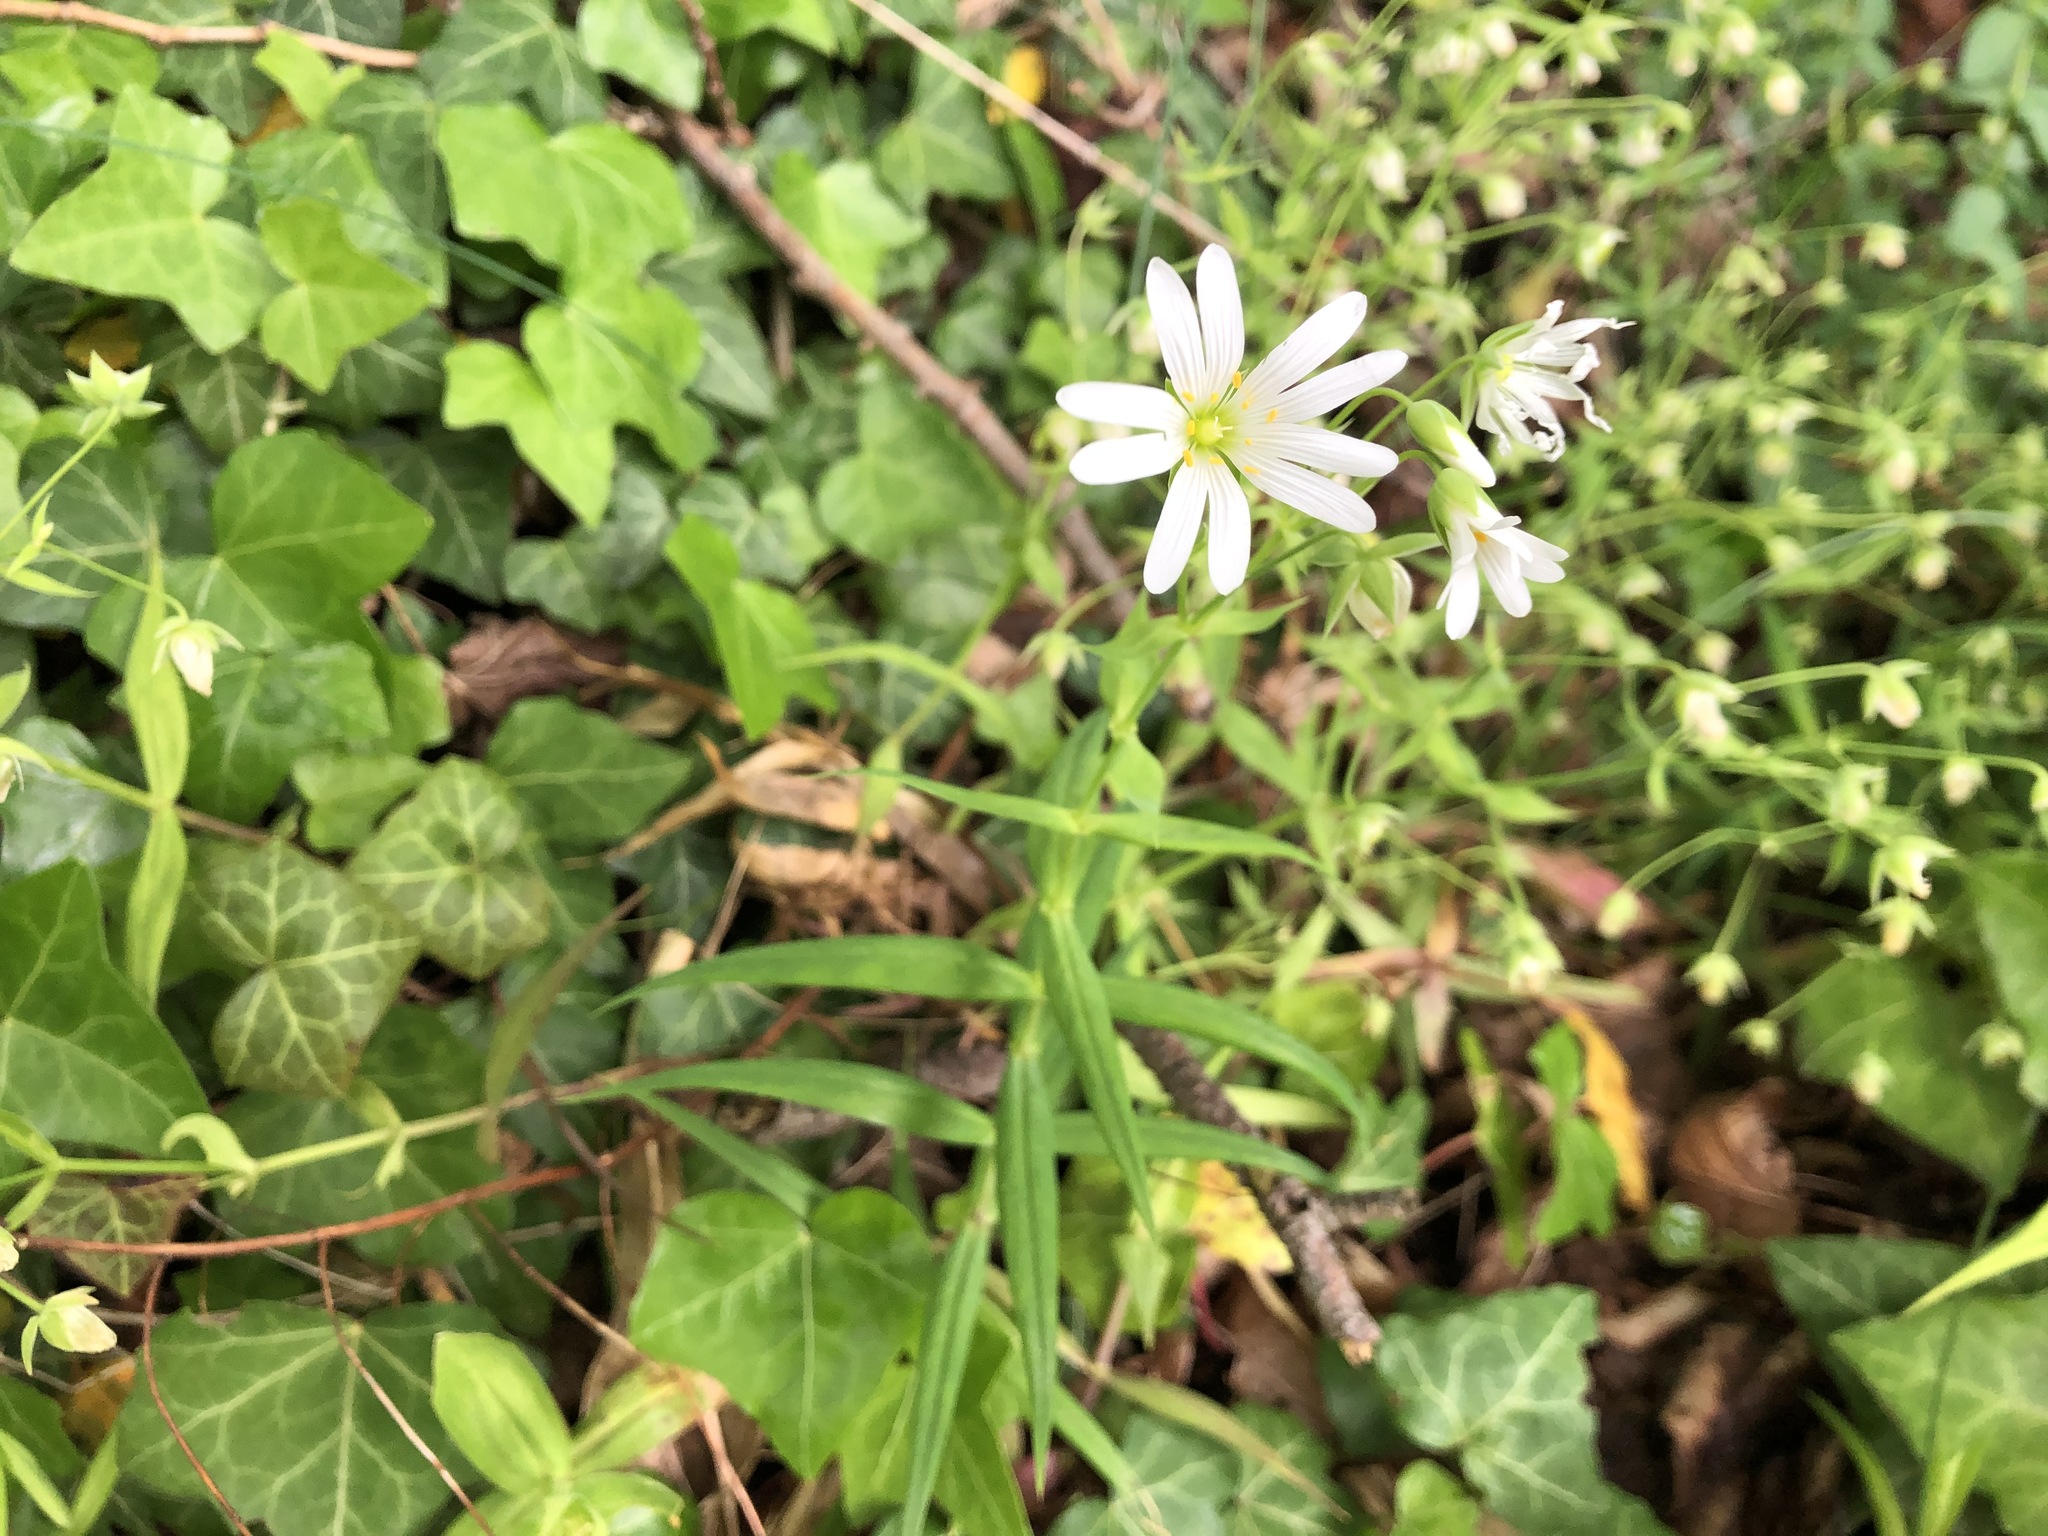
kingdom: Plantae
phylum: Tracheophyta
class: Magnoliopsida
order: Caryophyllales
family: Caryophyllaceae
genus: Rabelera
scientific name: Rabelera holostea
